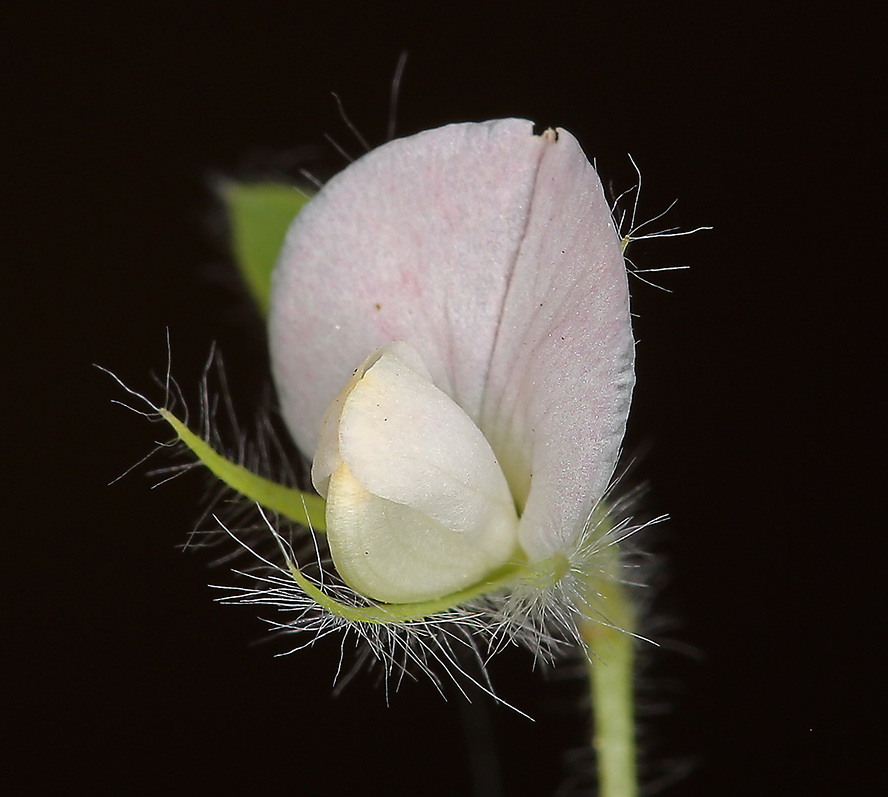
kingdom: Plantae
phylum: Tracheophyta
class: Magnoliopsida
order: Fabales
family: Fabaceae
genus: Acmispon
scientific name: Acmispon americanus
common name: American bird's-foot trefoil
